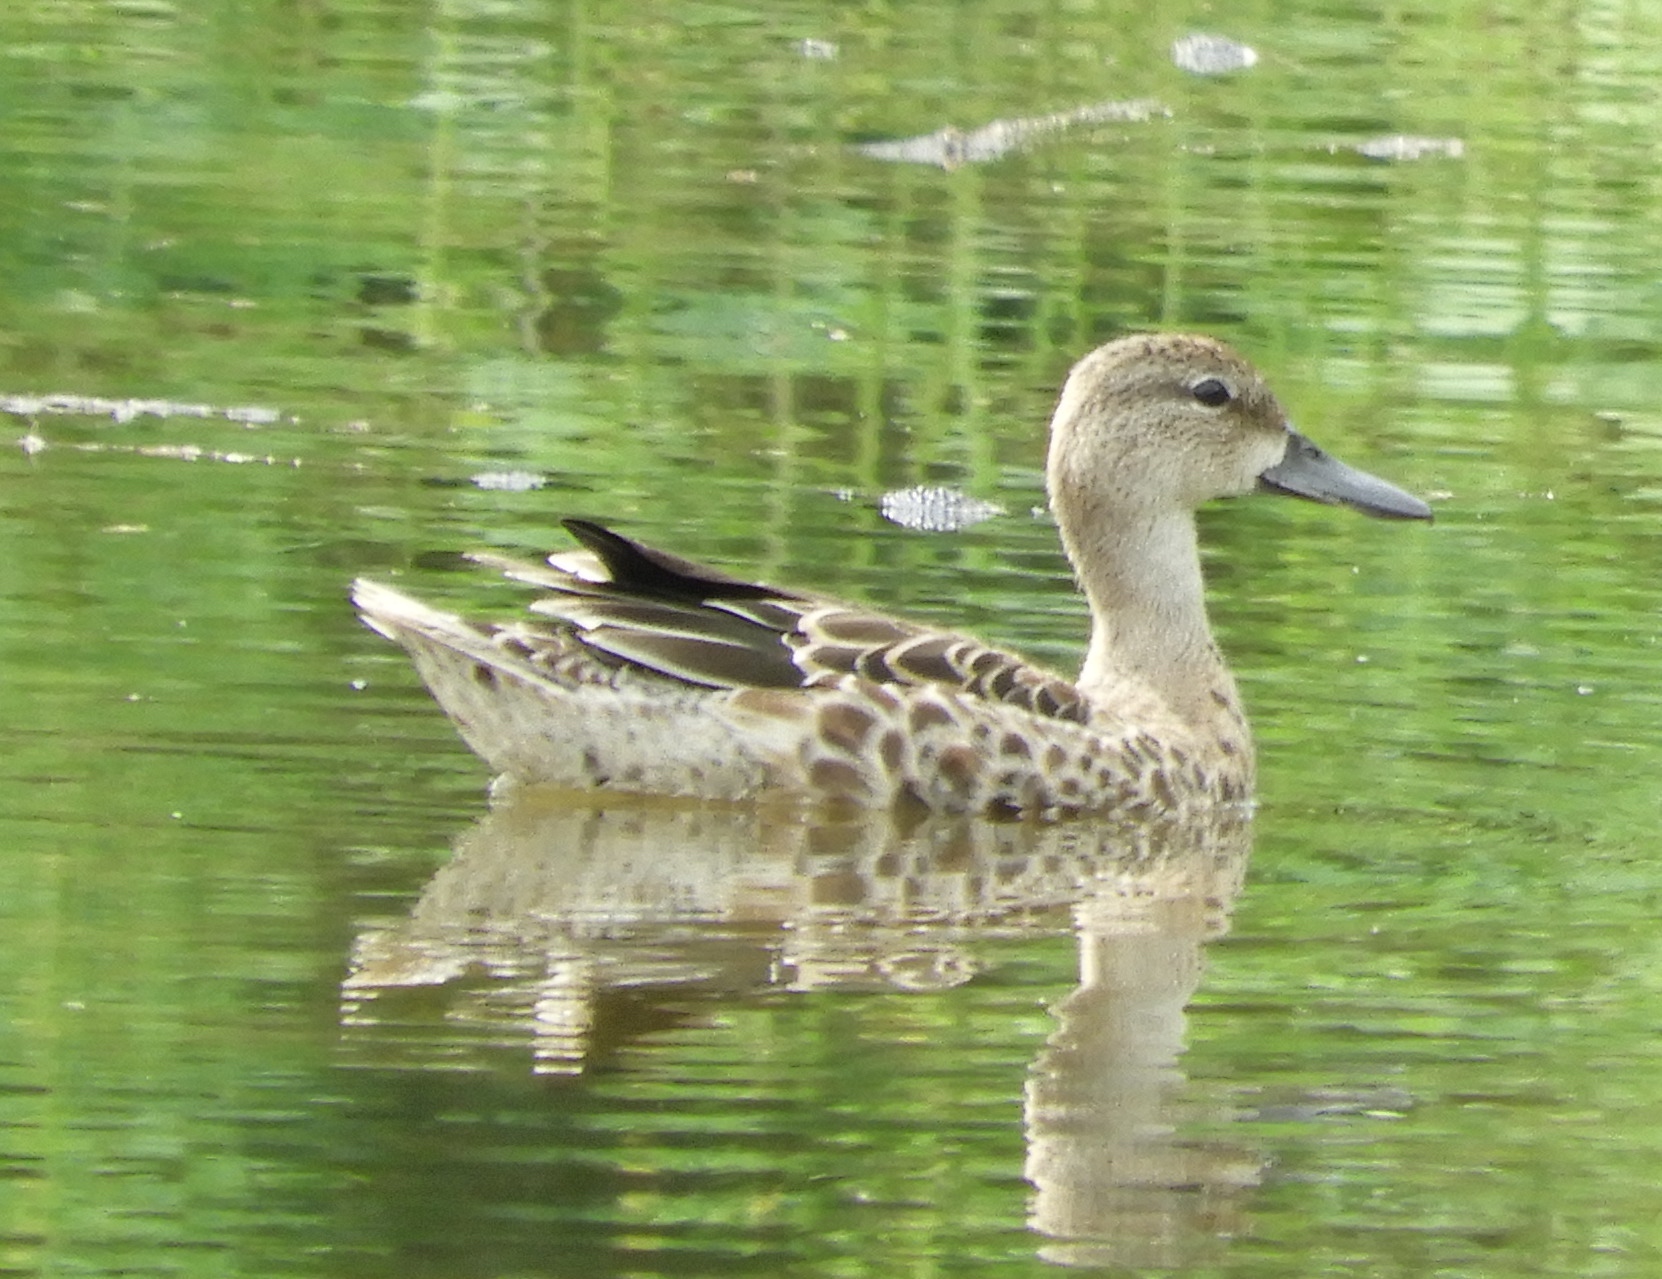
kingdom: Animalia
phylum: Chordata
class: Aves
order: Anseriformes
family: Anatidae
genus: Spatula
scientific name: Spatula discors
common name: Blue-winged teal
